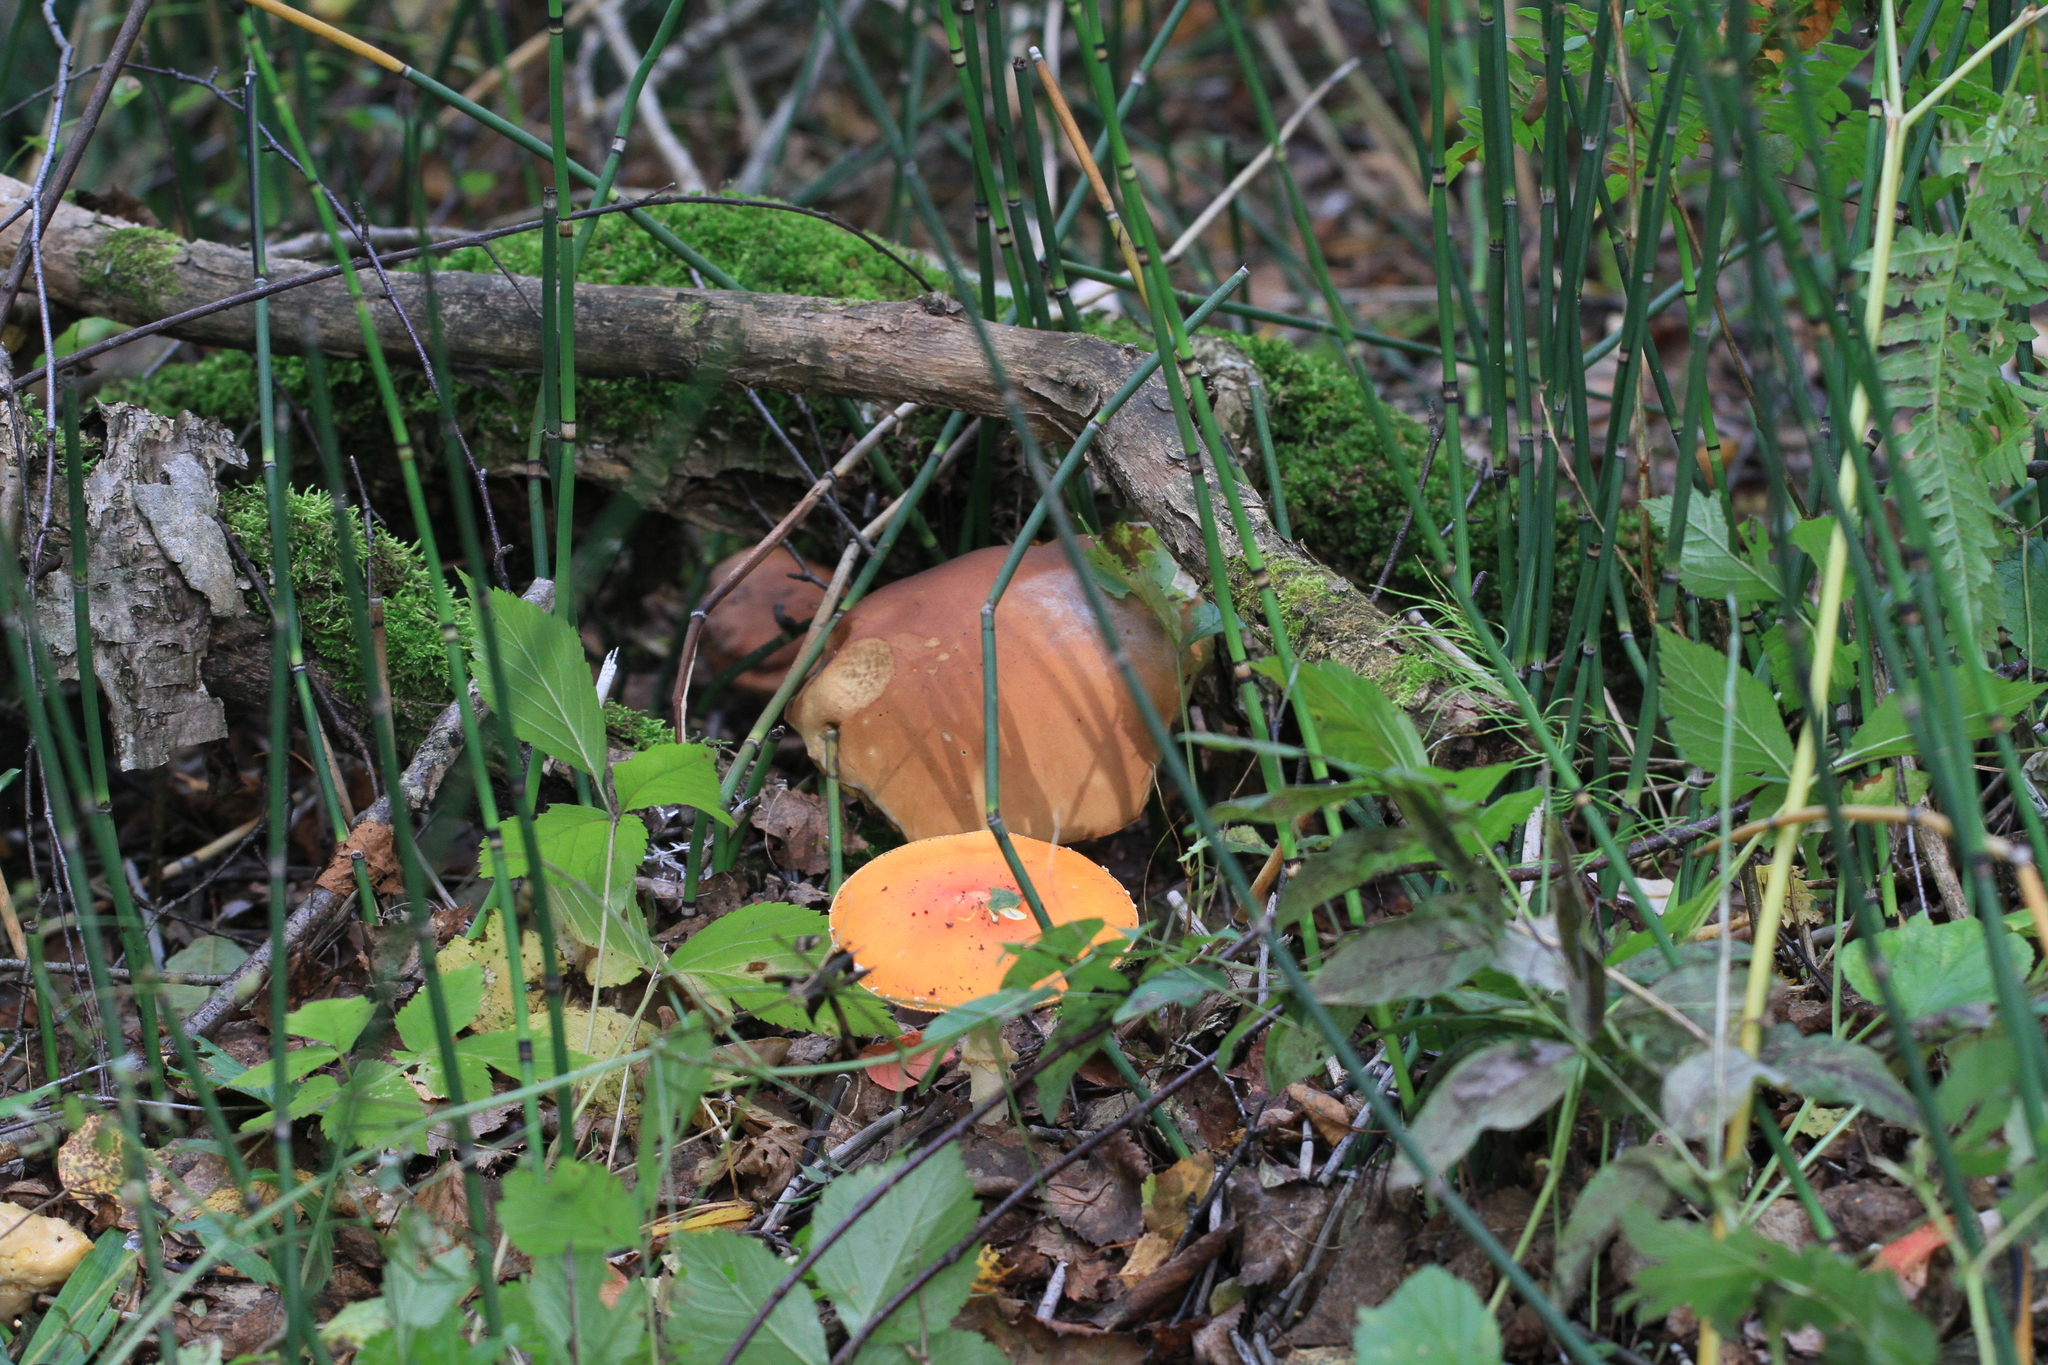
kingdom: Plantae
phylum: Tracheophyta
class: Polypodiopsida
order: Equisetales
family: Equisetaceae
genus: Equisetum
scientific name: Equisetum hyemale
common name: Rough horsetail
